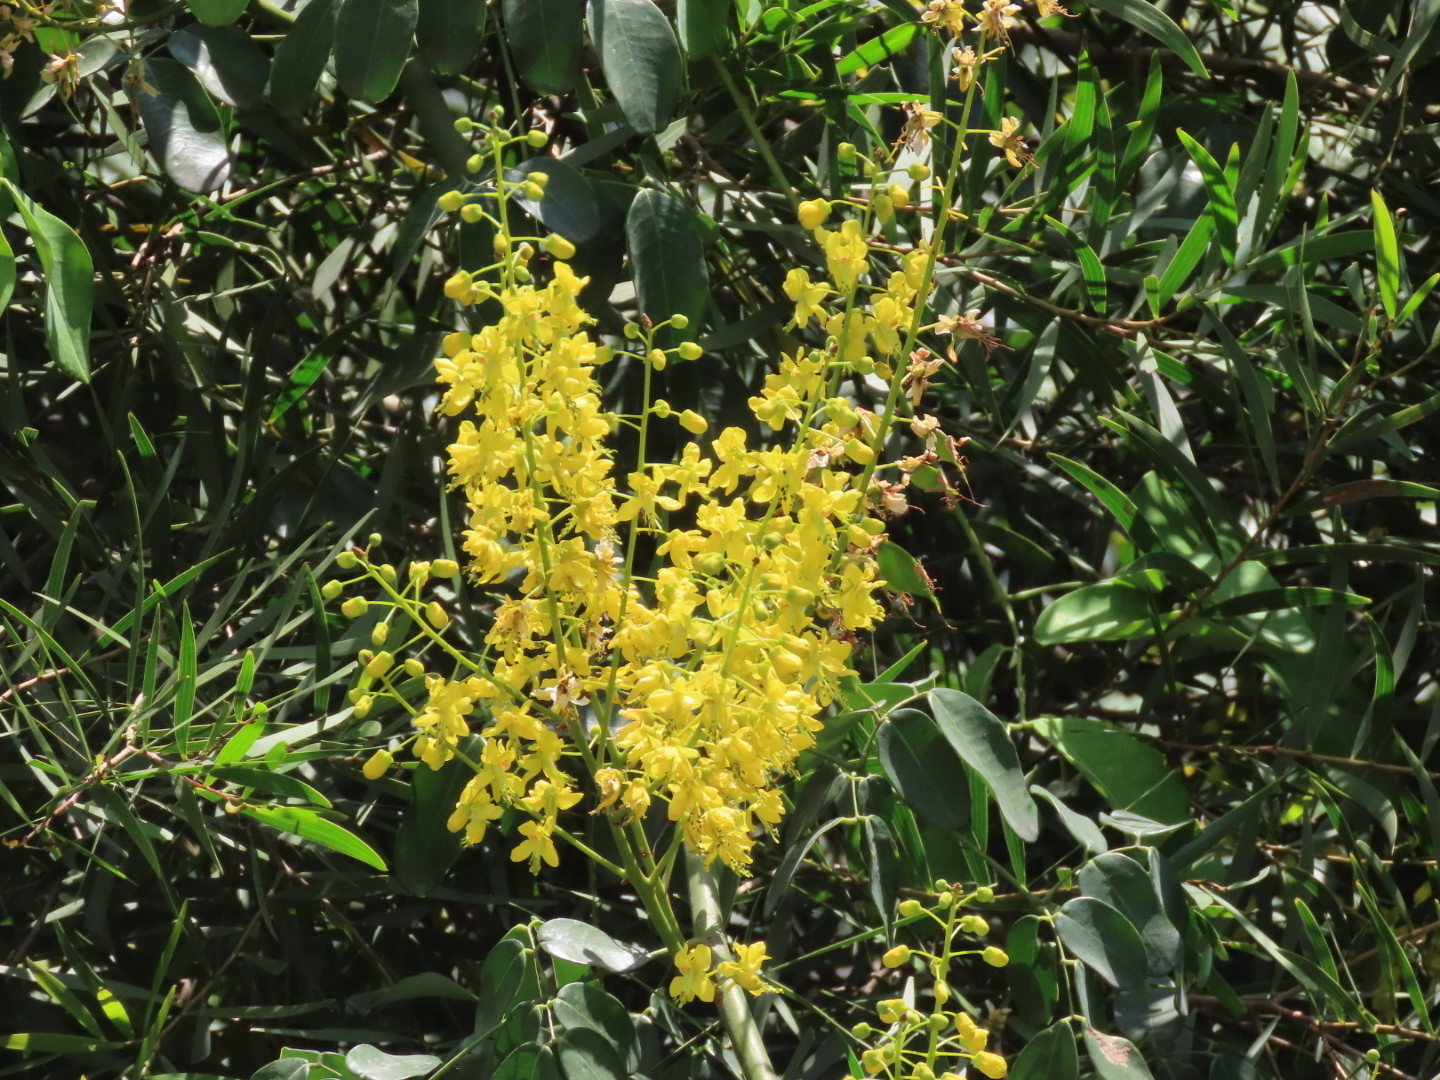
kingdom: Plantae
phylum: Tracheophyta
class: Magnoliopsida
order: Fabales
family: Fabaceae
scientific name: Fabaceae
